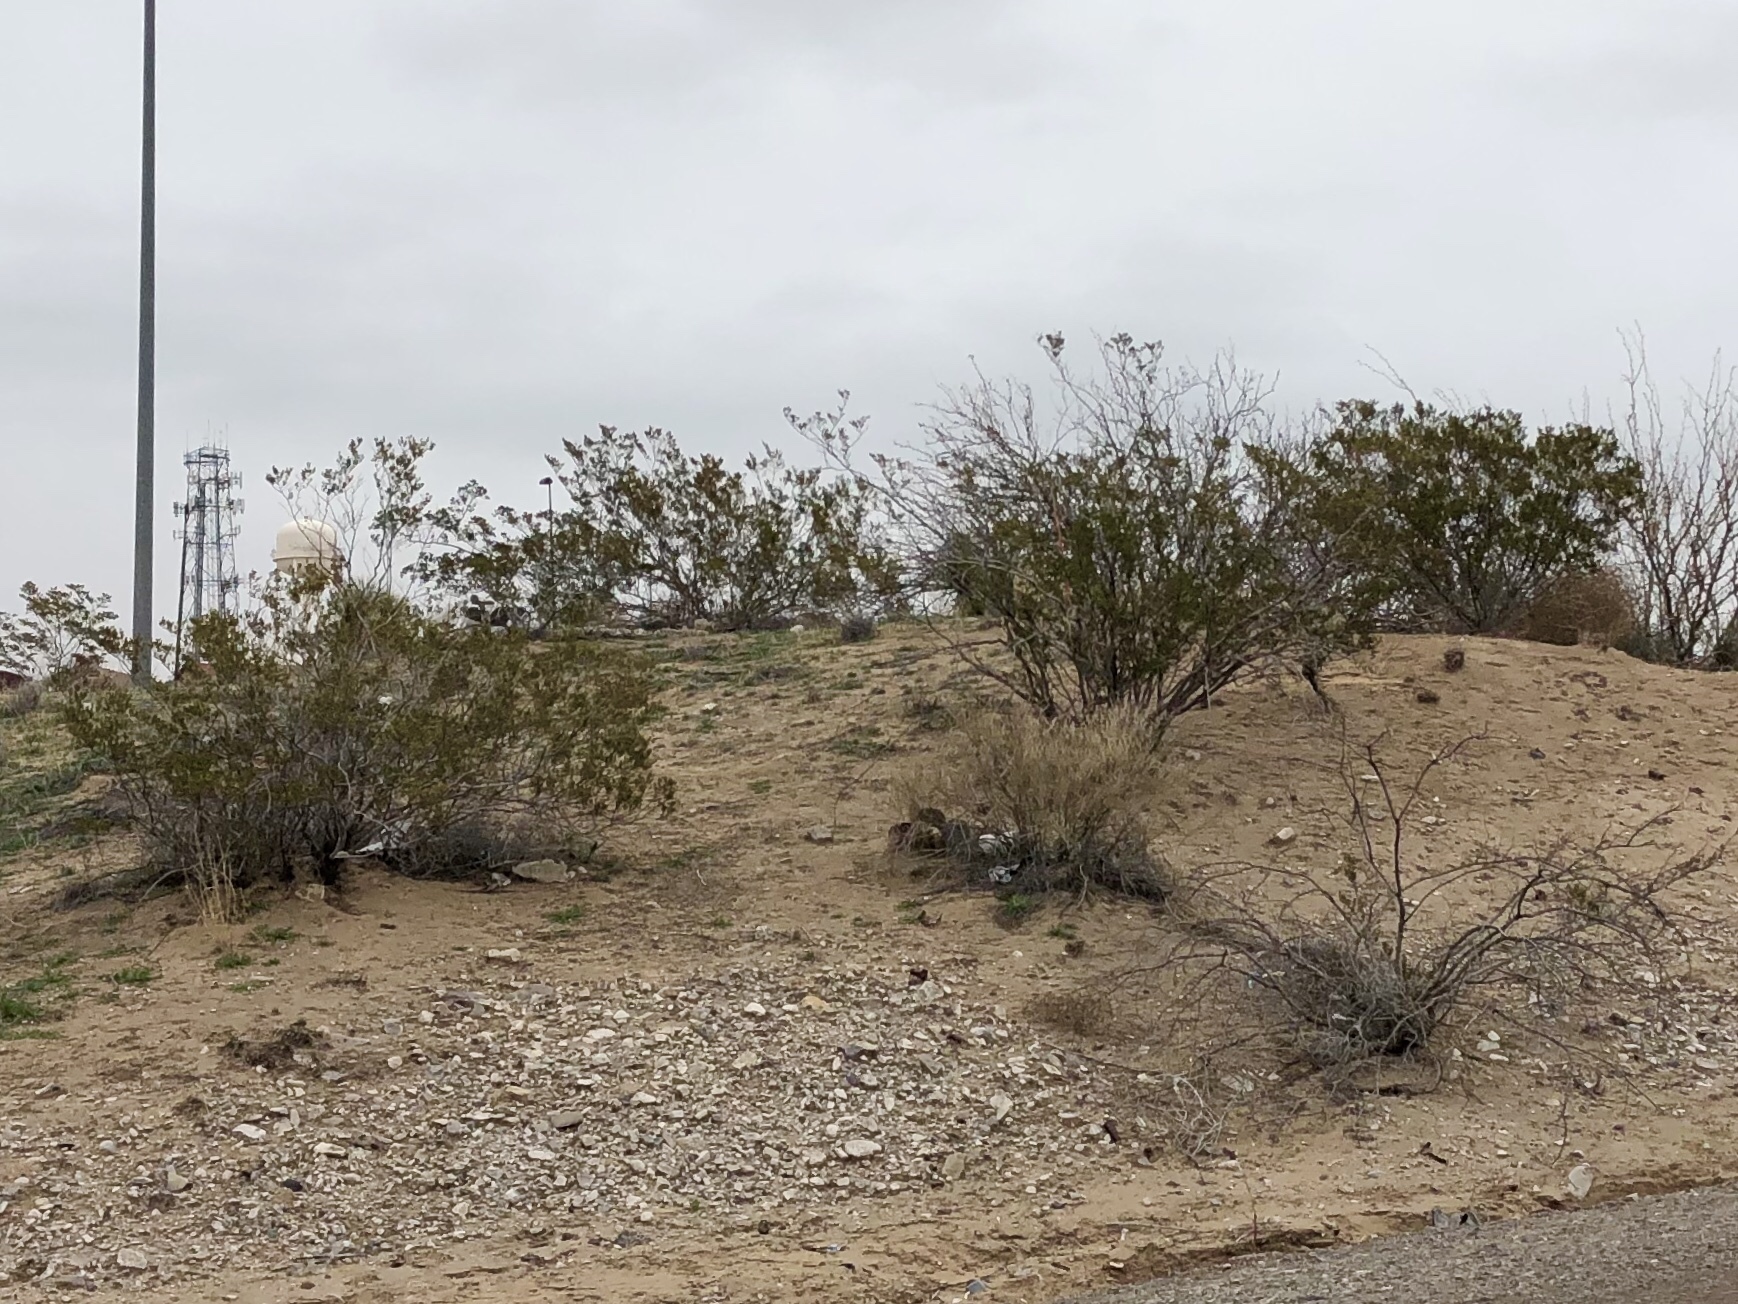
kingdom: Plantae
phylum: Tracheophyta
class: Magnoliopsida
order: Zygophyllales
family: Zygophyllaceae
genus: Larrea
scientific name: Larrea tridentata
